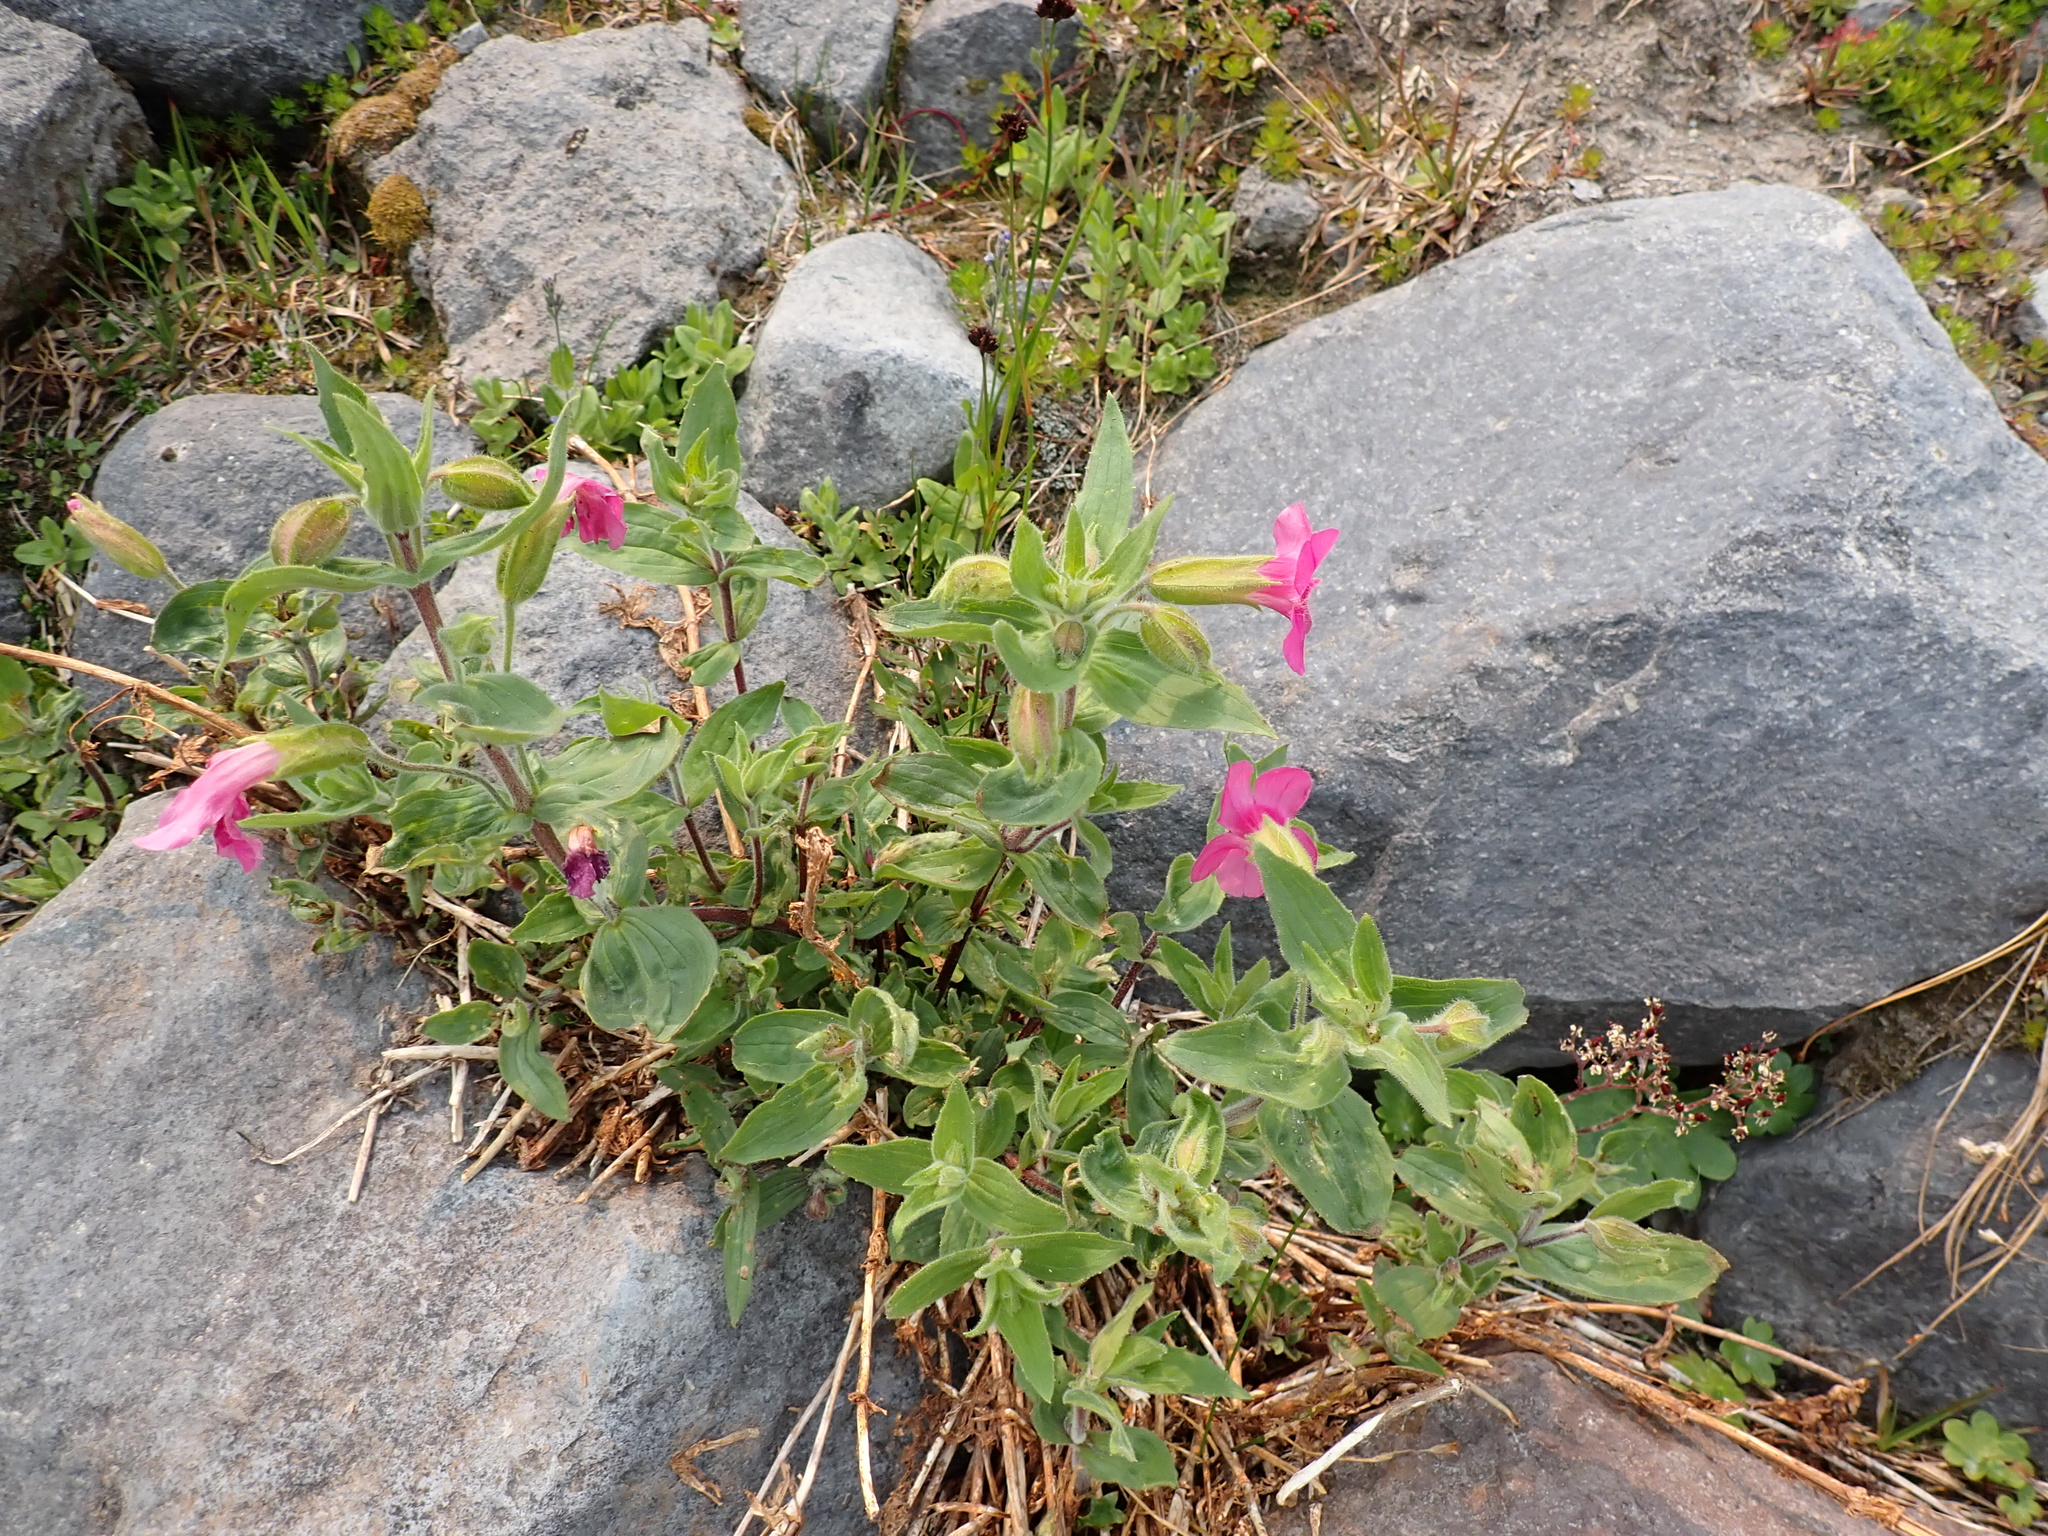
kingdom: Plantae
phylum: Tracheophyta
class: Magnoliopsida
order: Lamiales
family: Phrymaceae
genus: Erythranthe
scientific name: Erythranthe lewisii
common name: Lewis's monkey-flower
